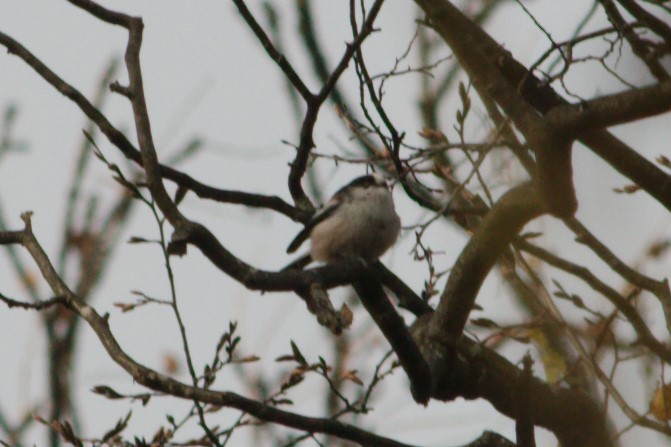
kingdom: Animalia
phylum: Chordata
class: Aves
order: Passeriformes
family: Aegithalidae
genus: Aegithalos
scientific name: Aegithalos caudatus
